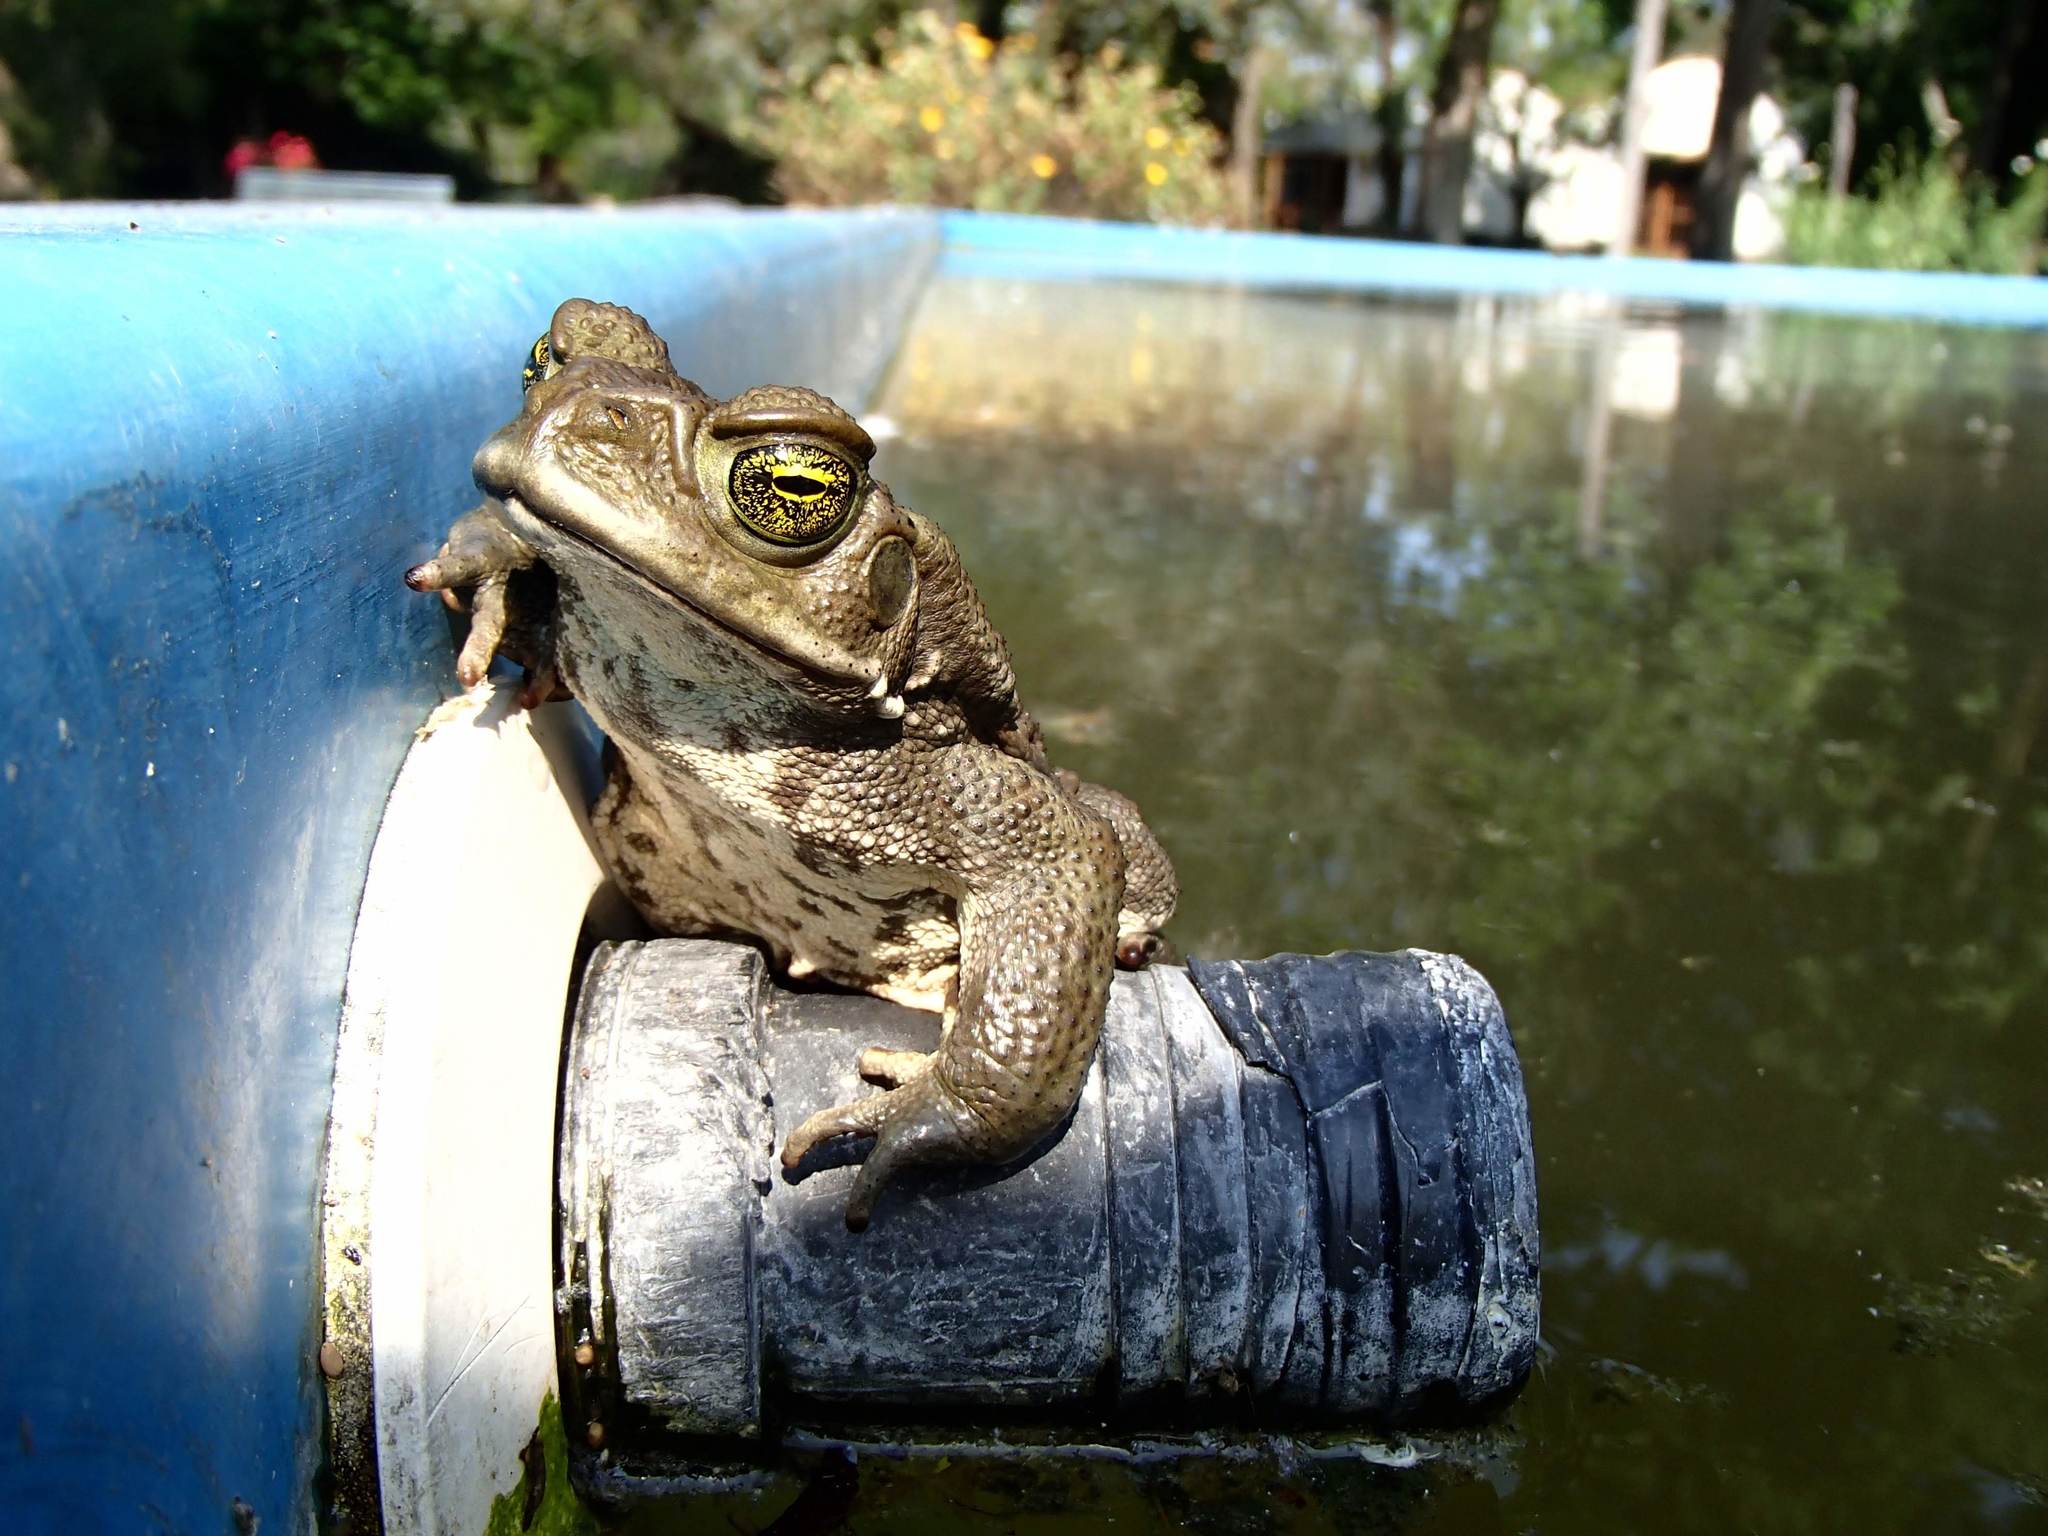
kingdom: Animalia
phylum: Chordata
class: Amphibia
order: Anura
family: Bufonidae
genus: Rhinella
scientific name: Rhinella arenarum
